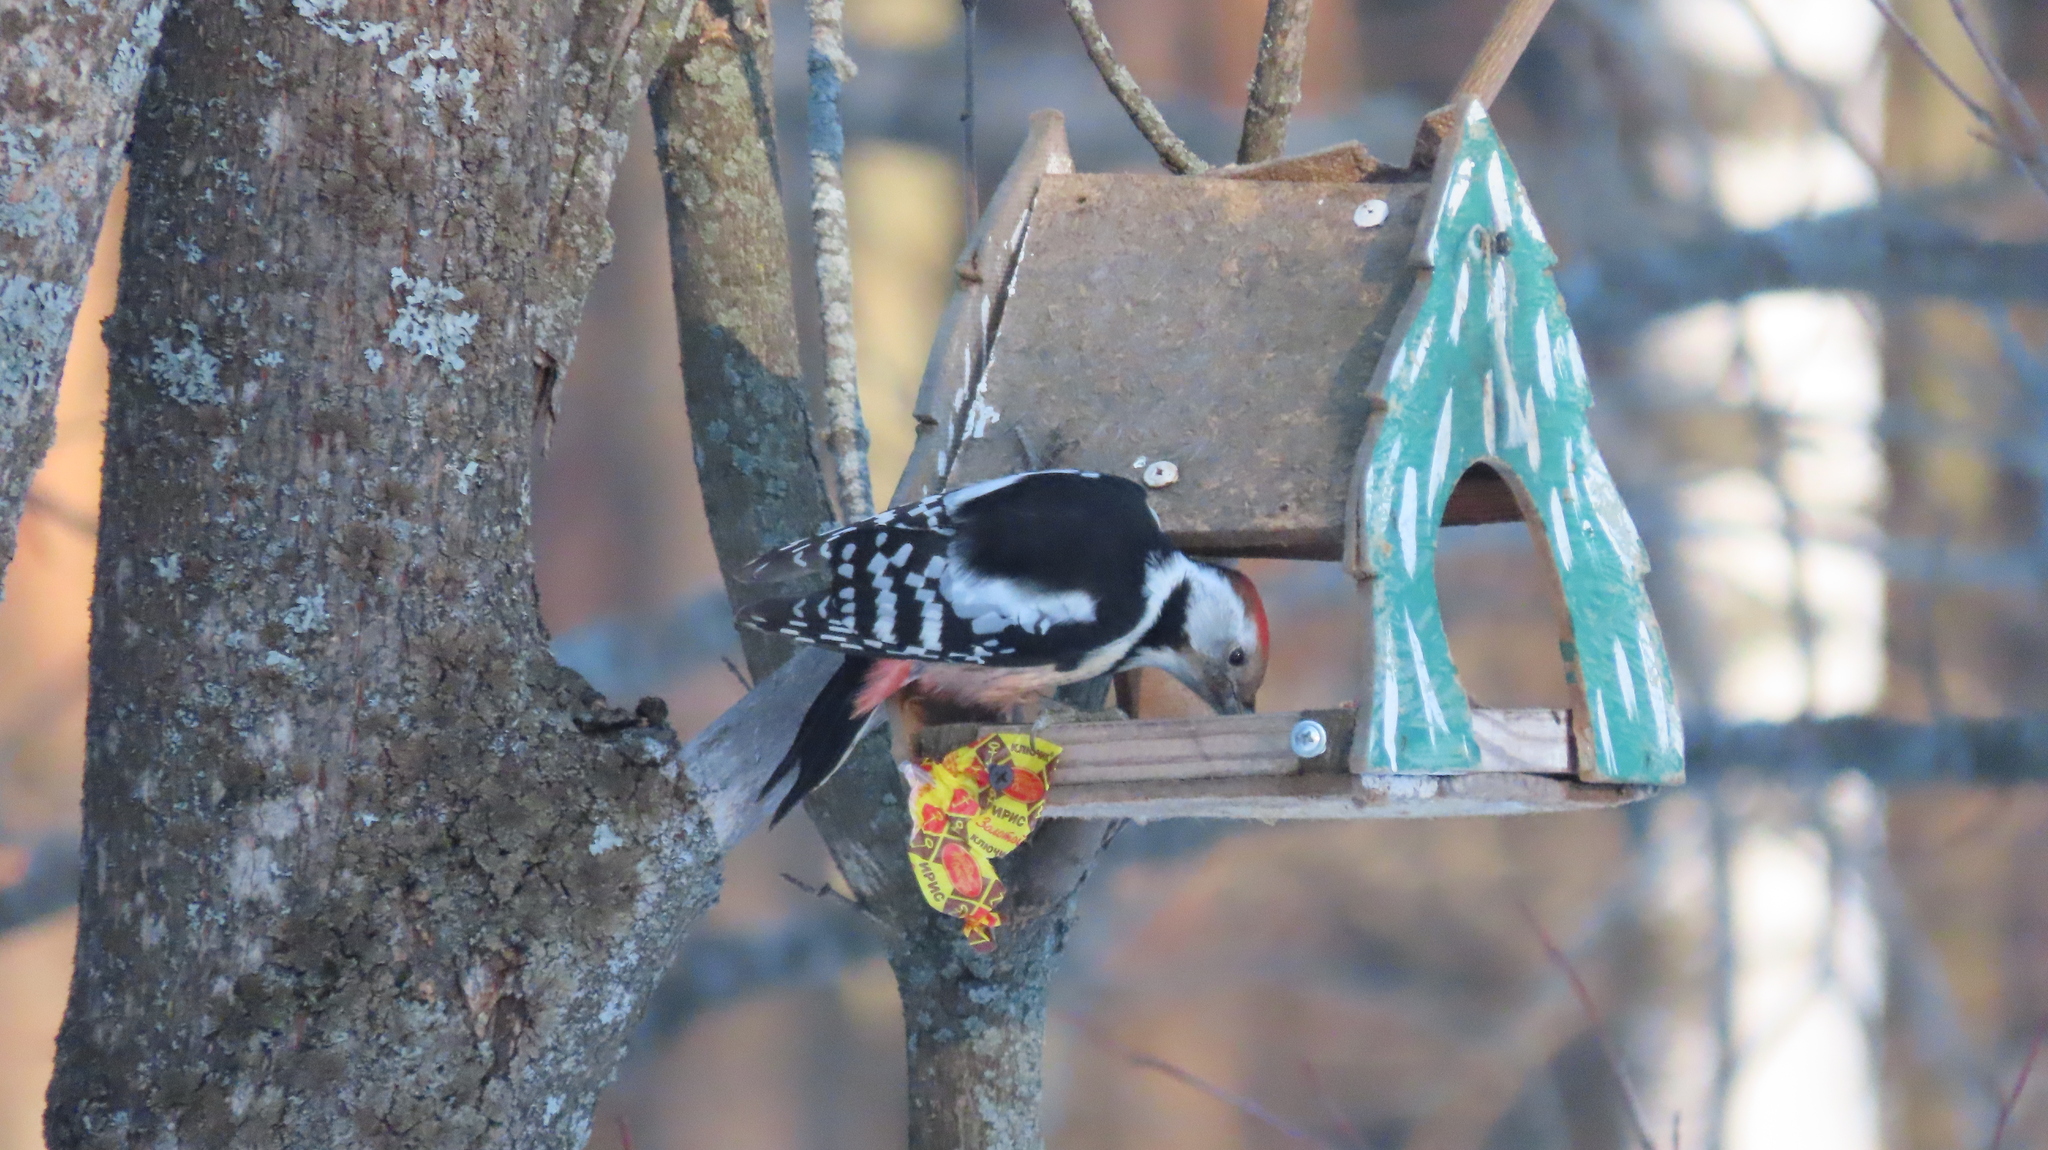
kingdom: Animalia
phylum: Chordata
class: Aves
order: Piciformes
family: Picidae
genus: Dendrocoptes
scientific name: Dendrocoptes medius
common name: Middle spotted woodpecker
